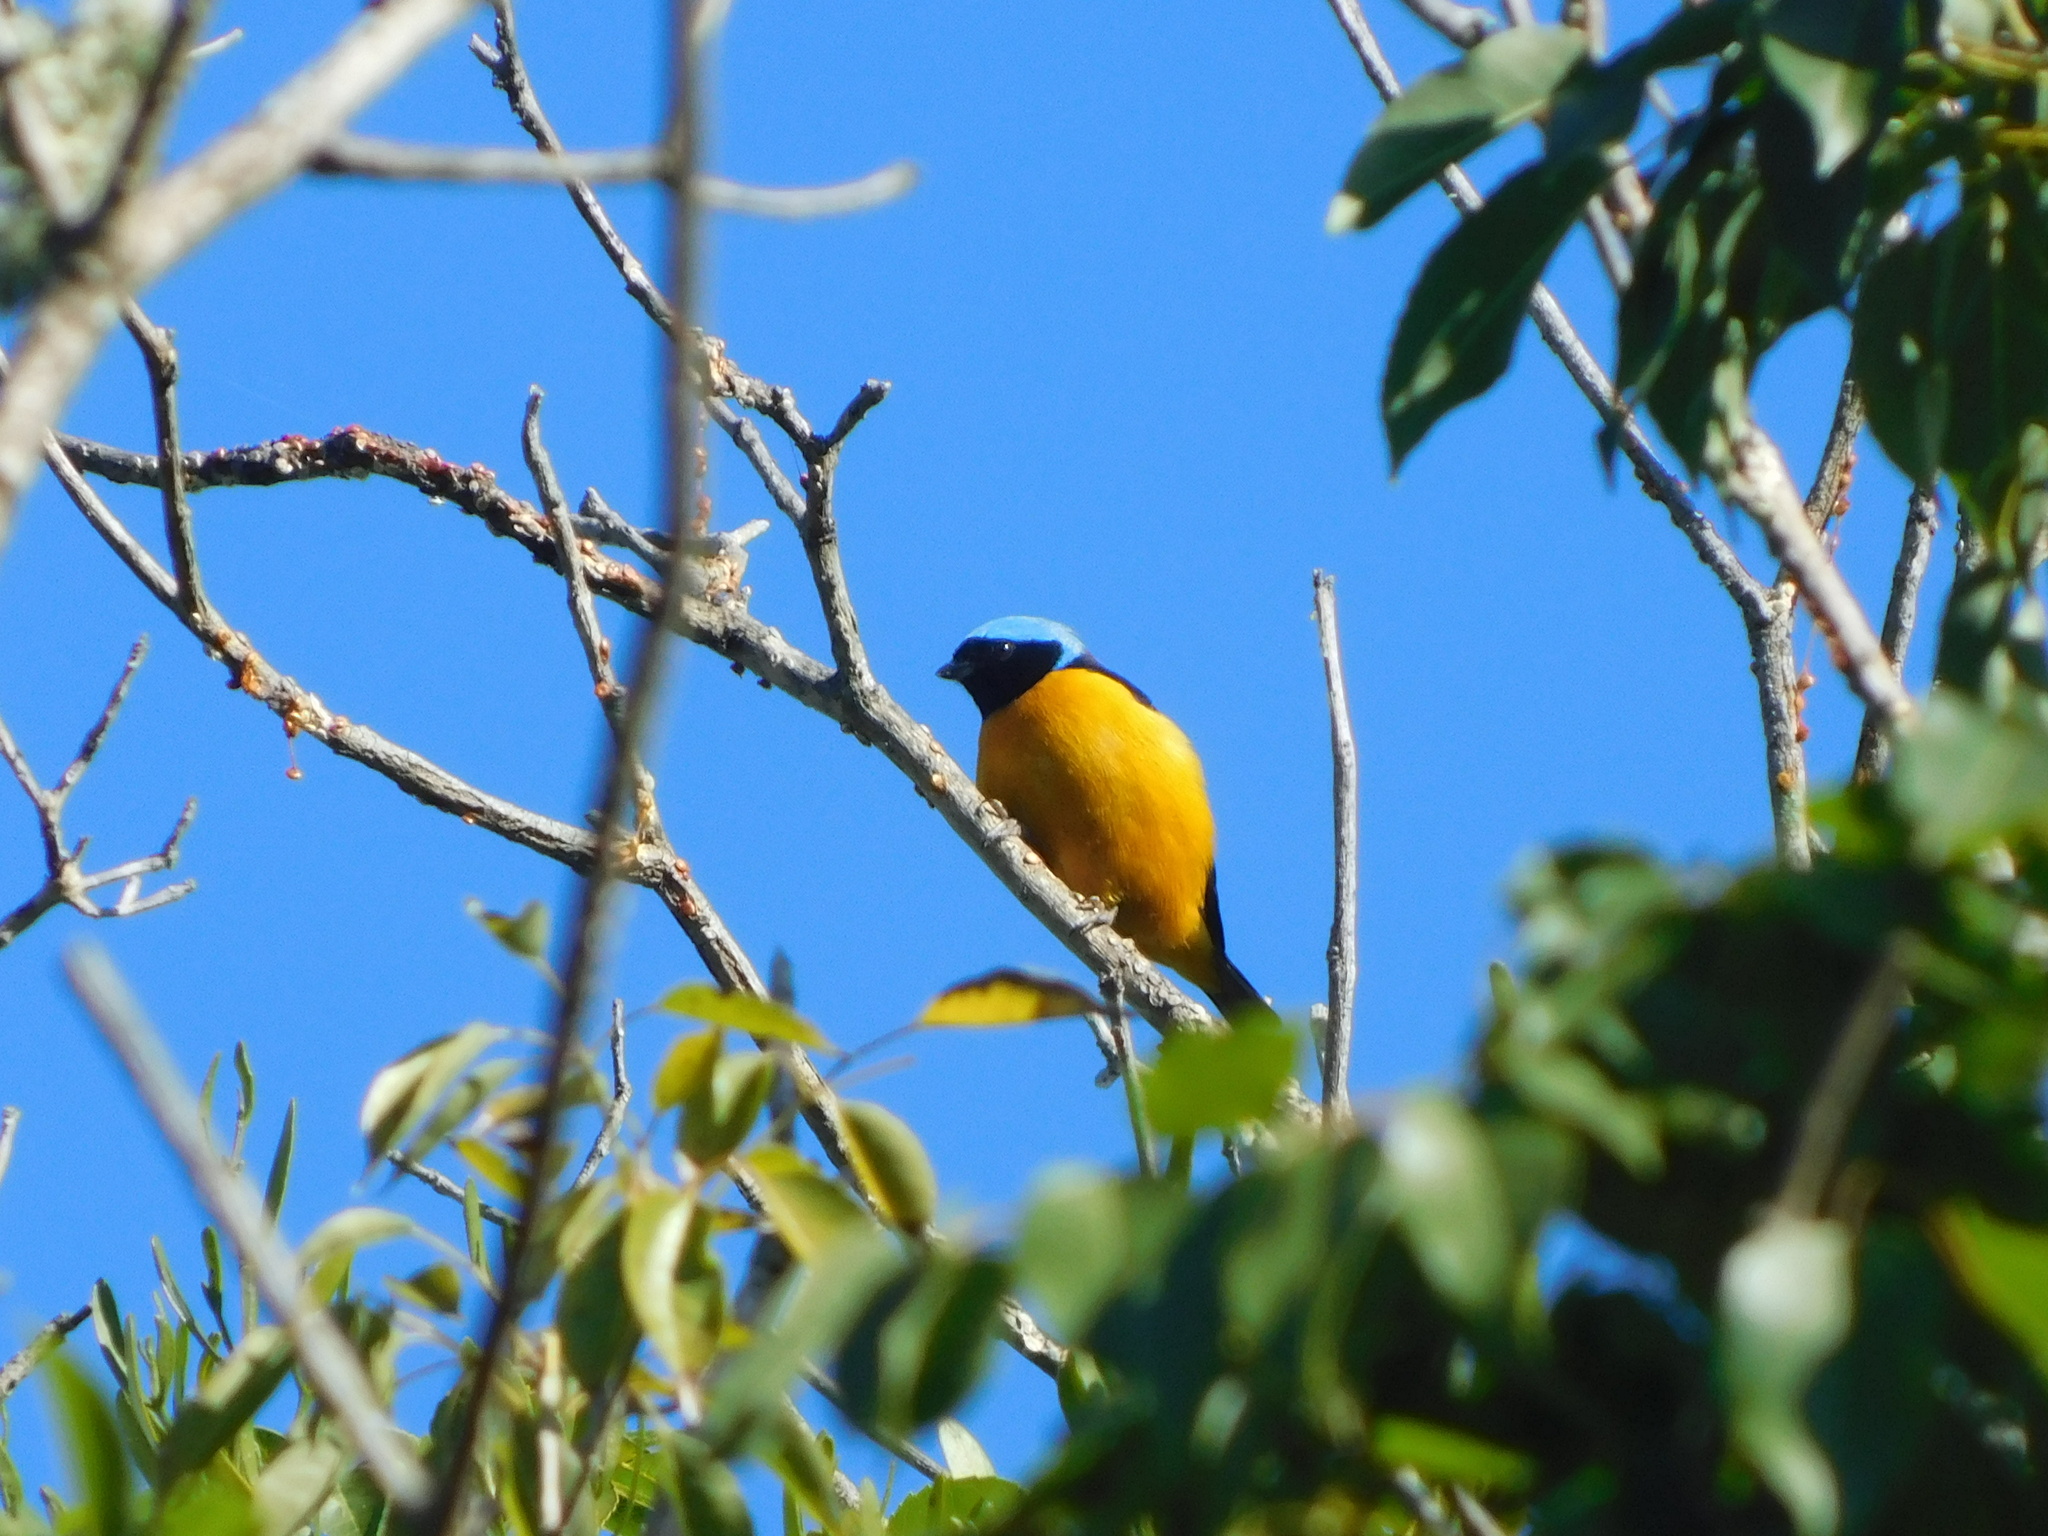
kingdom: Animalia
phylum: Chordata
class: Aves
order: Passeriformes
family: Fringillidae
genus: Euphonia
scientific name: Euphonia cyanocephala
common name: Golden-rumped euphonia
